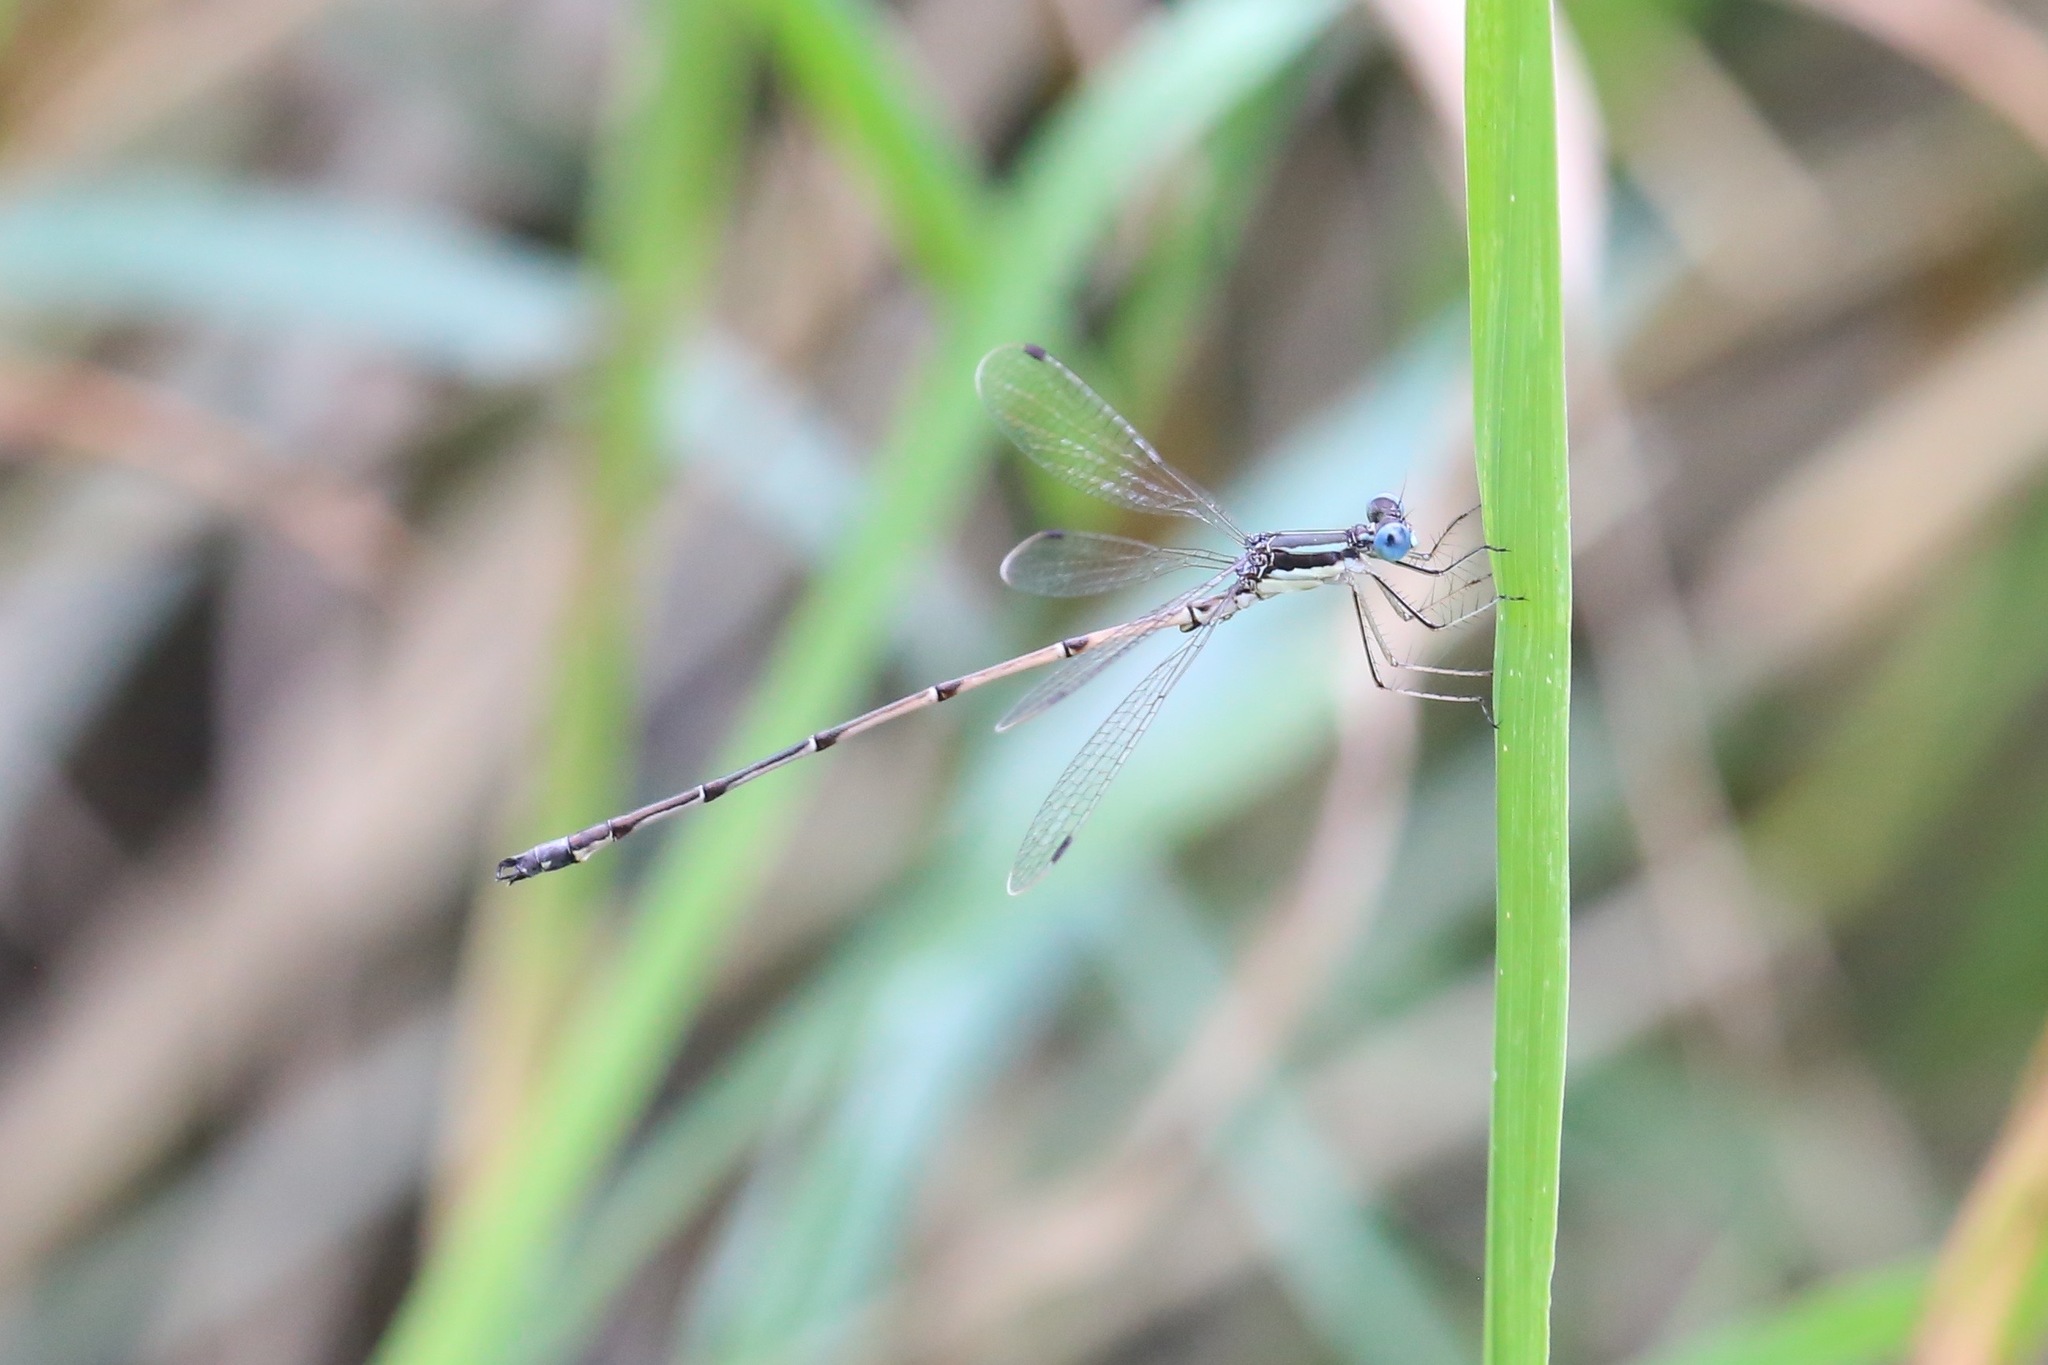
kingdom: Animalia
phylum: Arthropoda
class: Insecta
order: Odonata
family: Lestidae
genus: Lestes
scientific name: Lestes rectangularis
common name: Slender spreadwing
